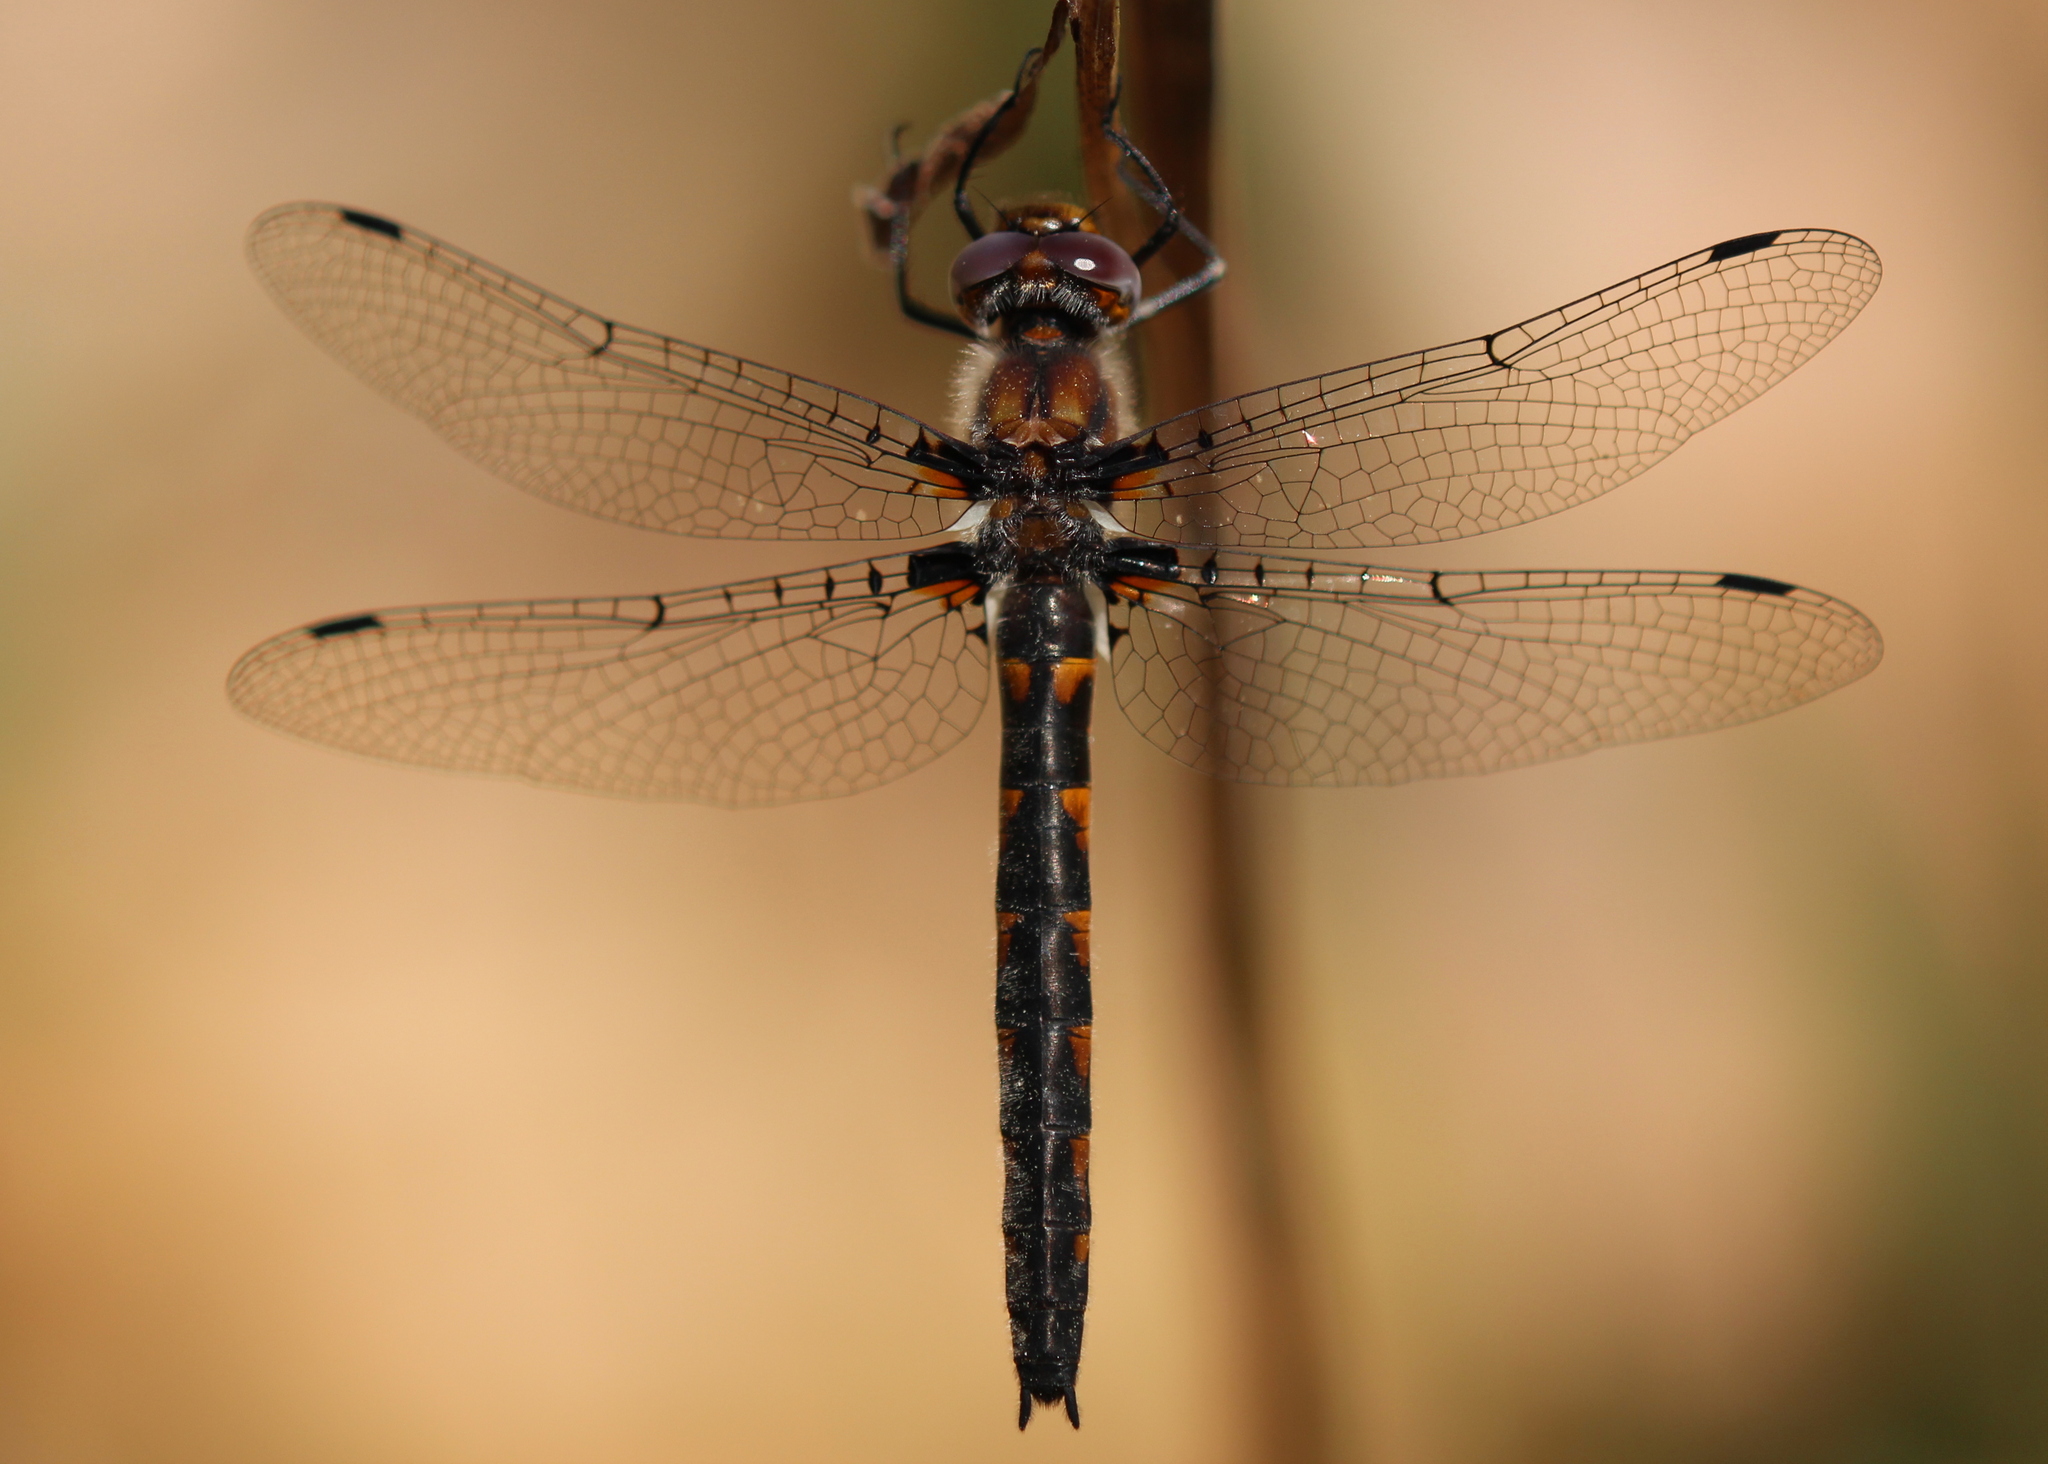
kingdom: Animalia
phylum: Arthropoda
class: Insecta
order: Odonata
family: Corduliidae
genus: Helocordulia
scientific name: Helocordulia uhleri
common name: Uhler's sundragon
